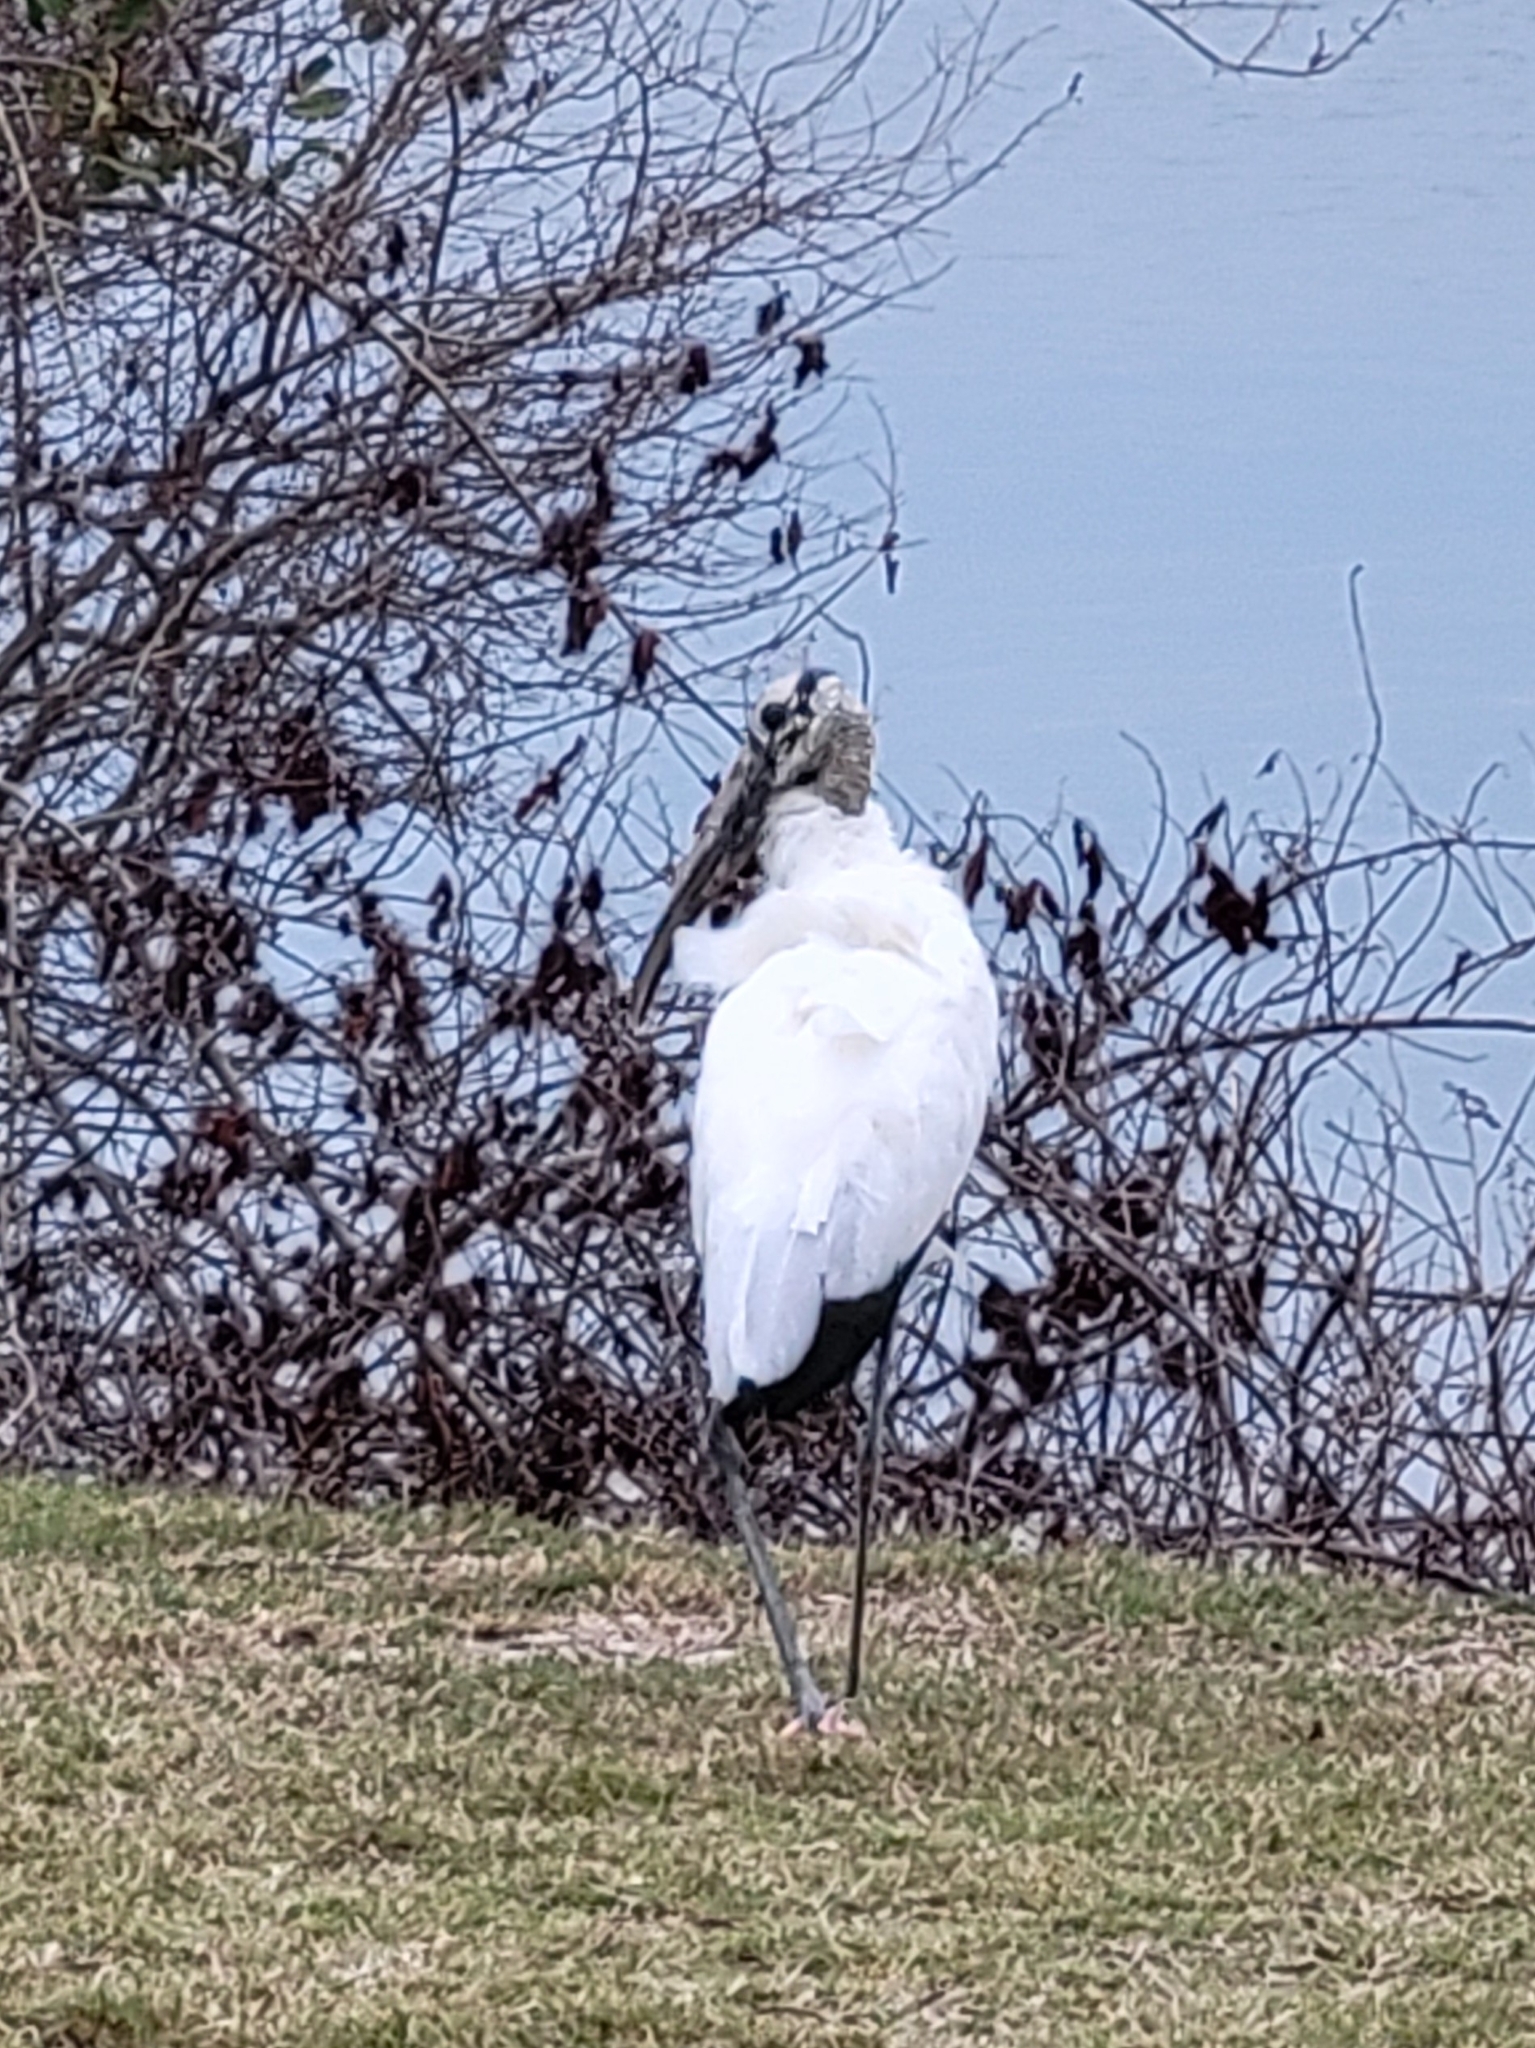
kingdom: Animalia
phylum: Chordata
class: Aves
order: Ciconiiformes
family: Ciconiidae
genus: Mycteria
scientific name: Mycteria americana
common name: Wood stork
